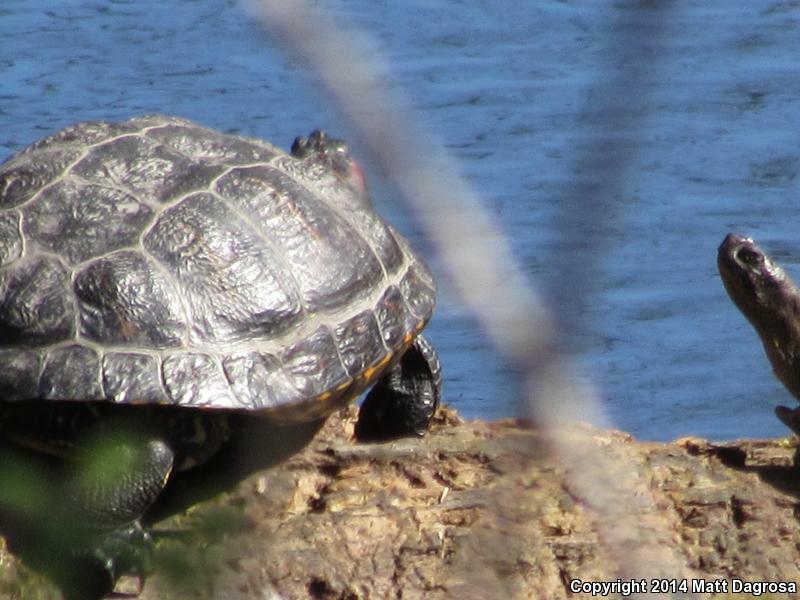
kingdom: Animalia
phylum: Chordata
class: Testudines
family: Emydidae
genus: Trachemys
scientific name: Trachemys scripta
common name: Slider
